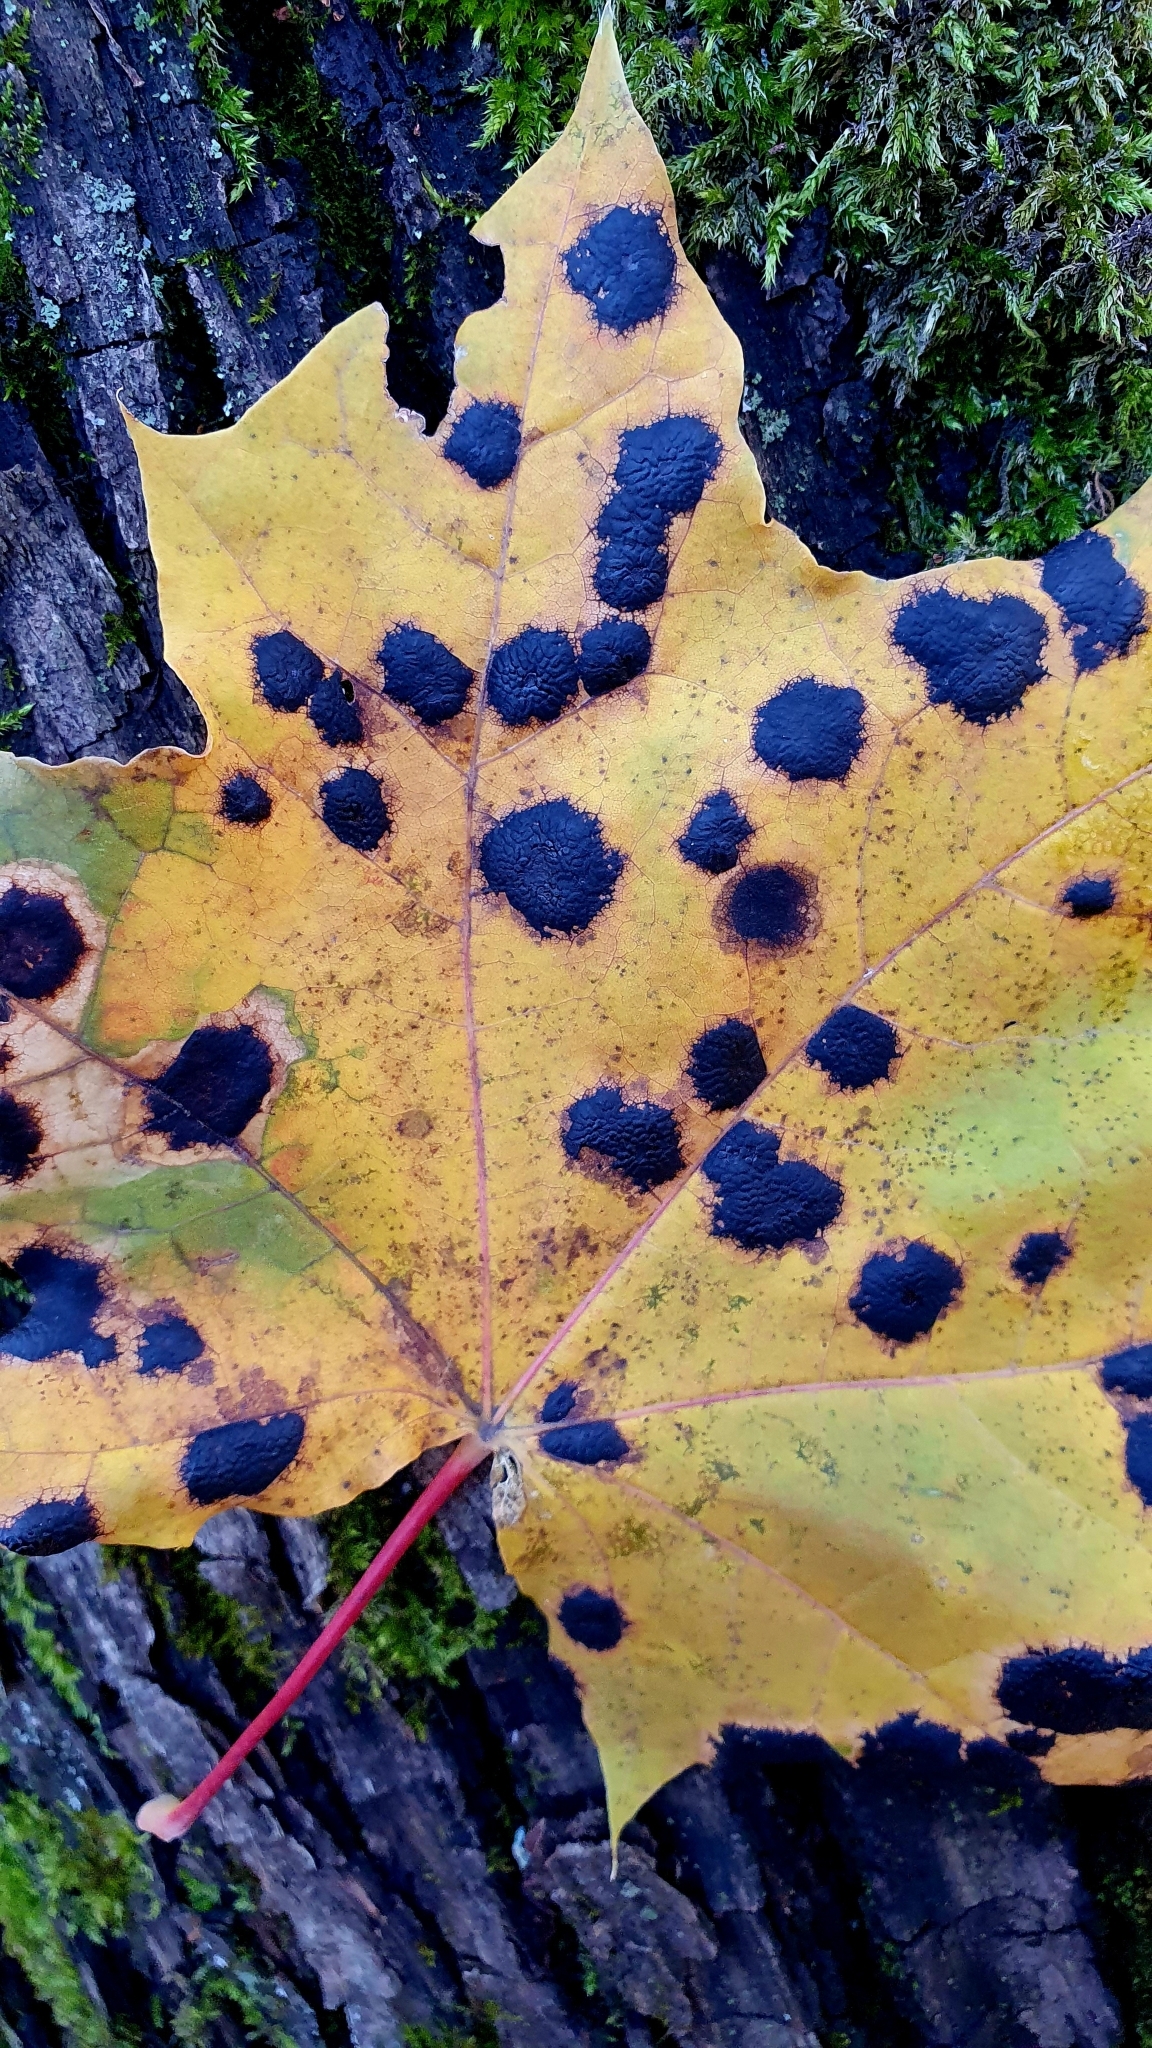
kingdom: Fungi
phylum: Ascomycota
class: Leotiomycetes
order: Rhytismatales
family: Rhytismataceae
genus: Rhytisma
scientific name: Rhytisma acerinum
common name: European tar spot
